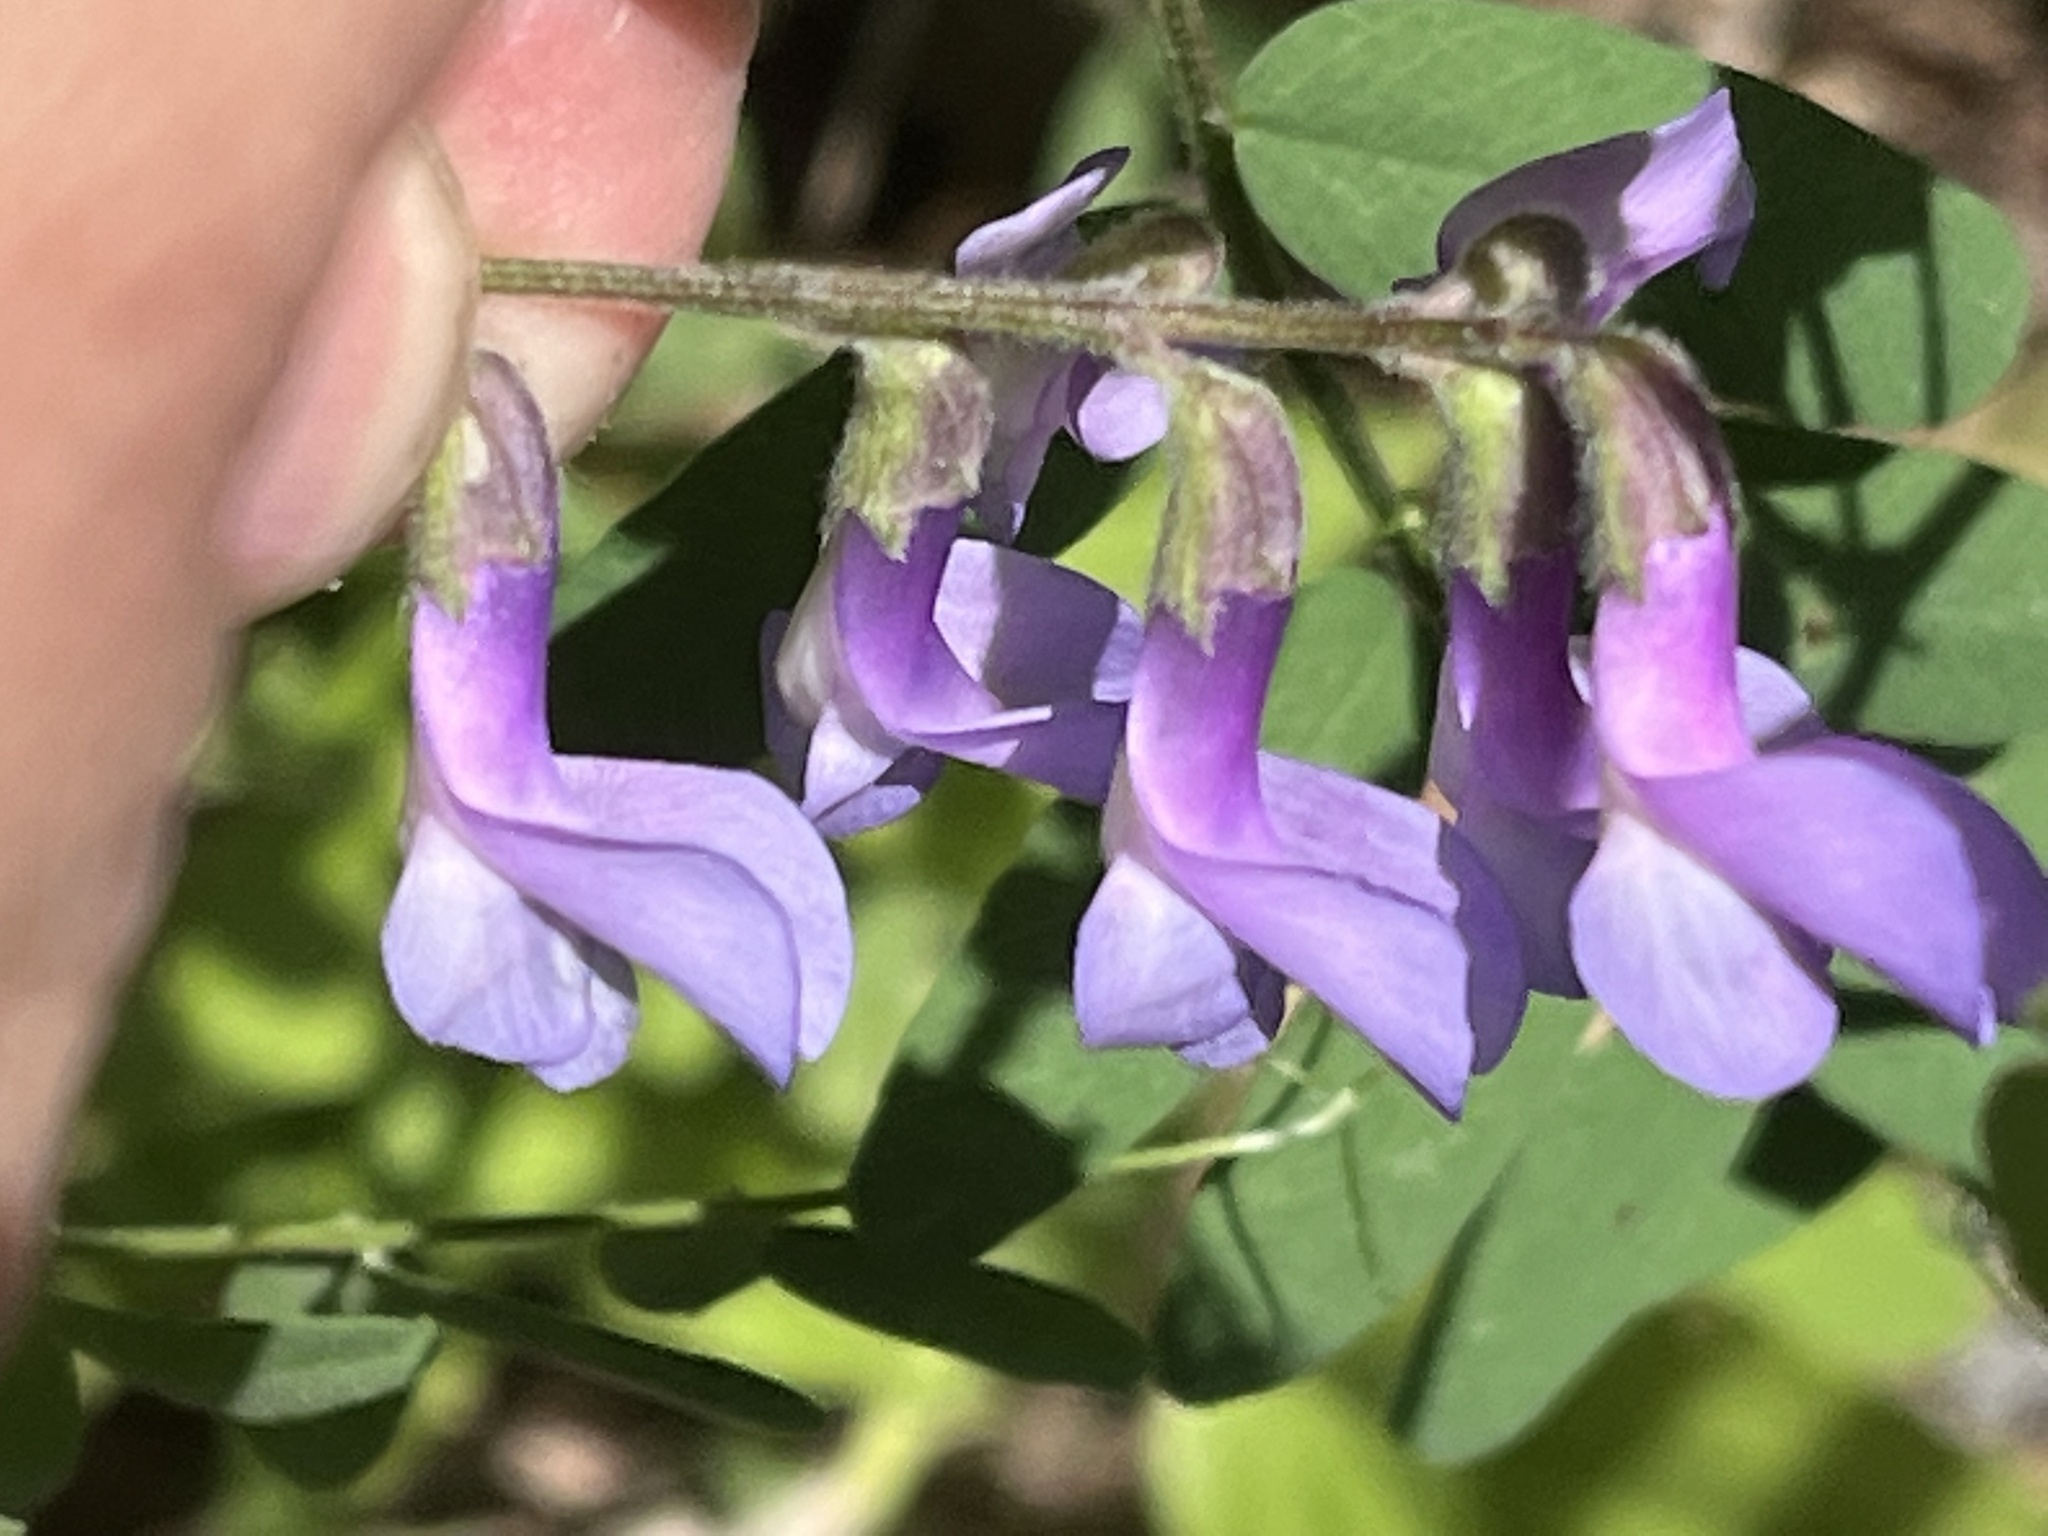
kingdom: Plantae
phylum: Tracheophyta
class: Magnoliopsida
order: Fabales
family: Fabaceae
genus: Vicia
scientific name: Vicia americana
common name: American vetch
